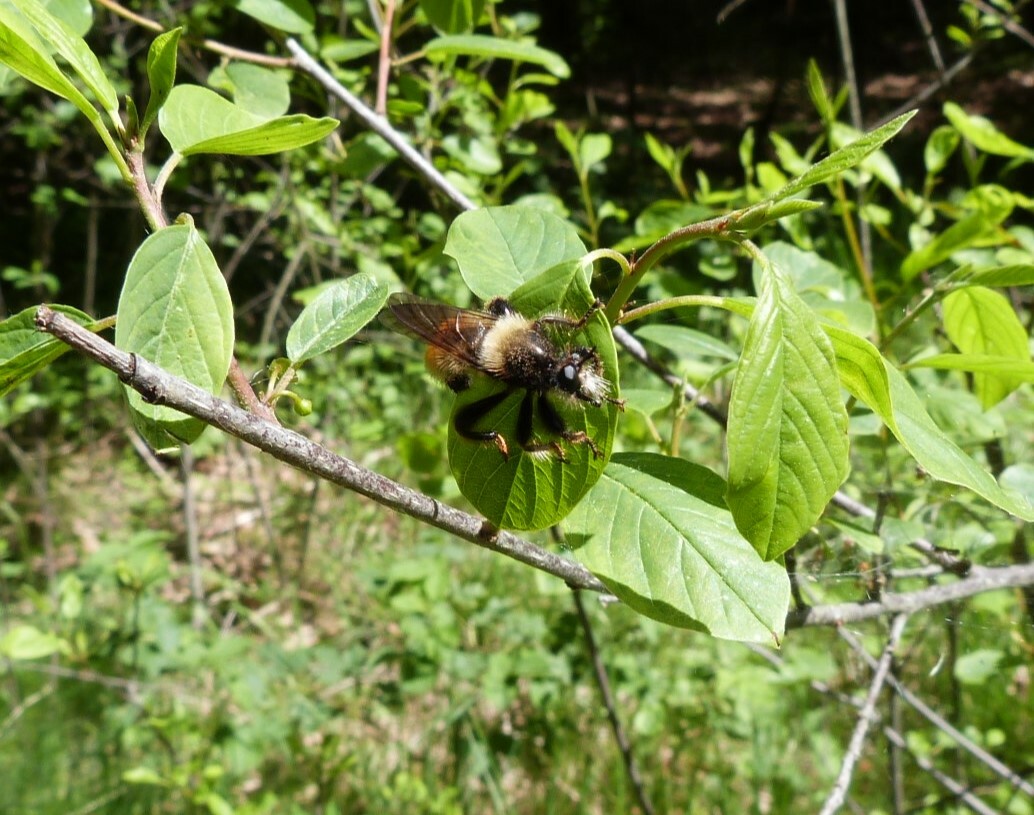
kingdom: Animalia
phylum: Arthropoda
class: Insecta
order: Diptera
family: Asilidae
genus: Laphria
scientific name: Laphria flava
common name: Bumblebee robberfly
